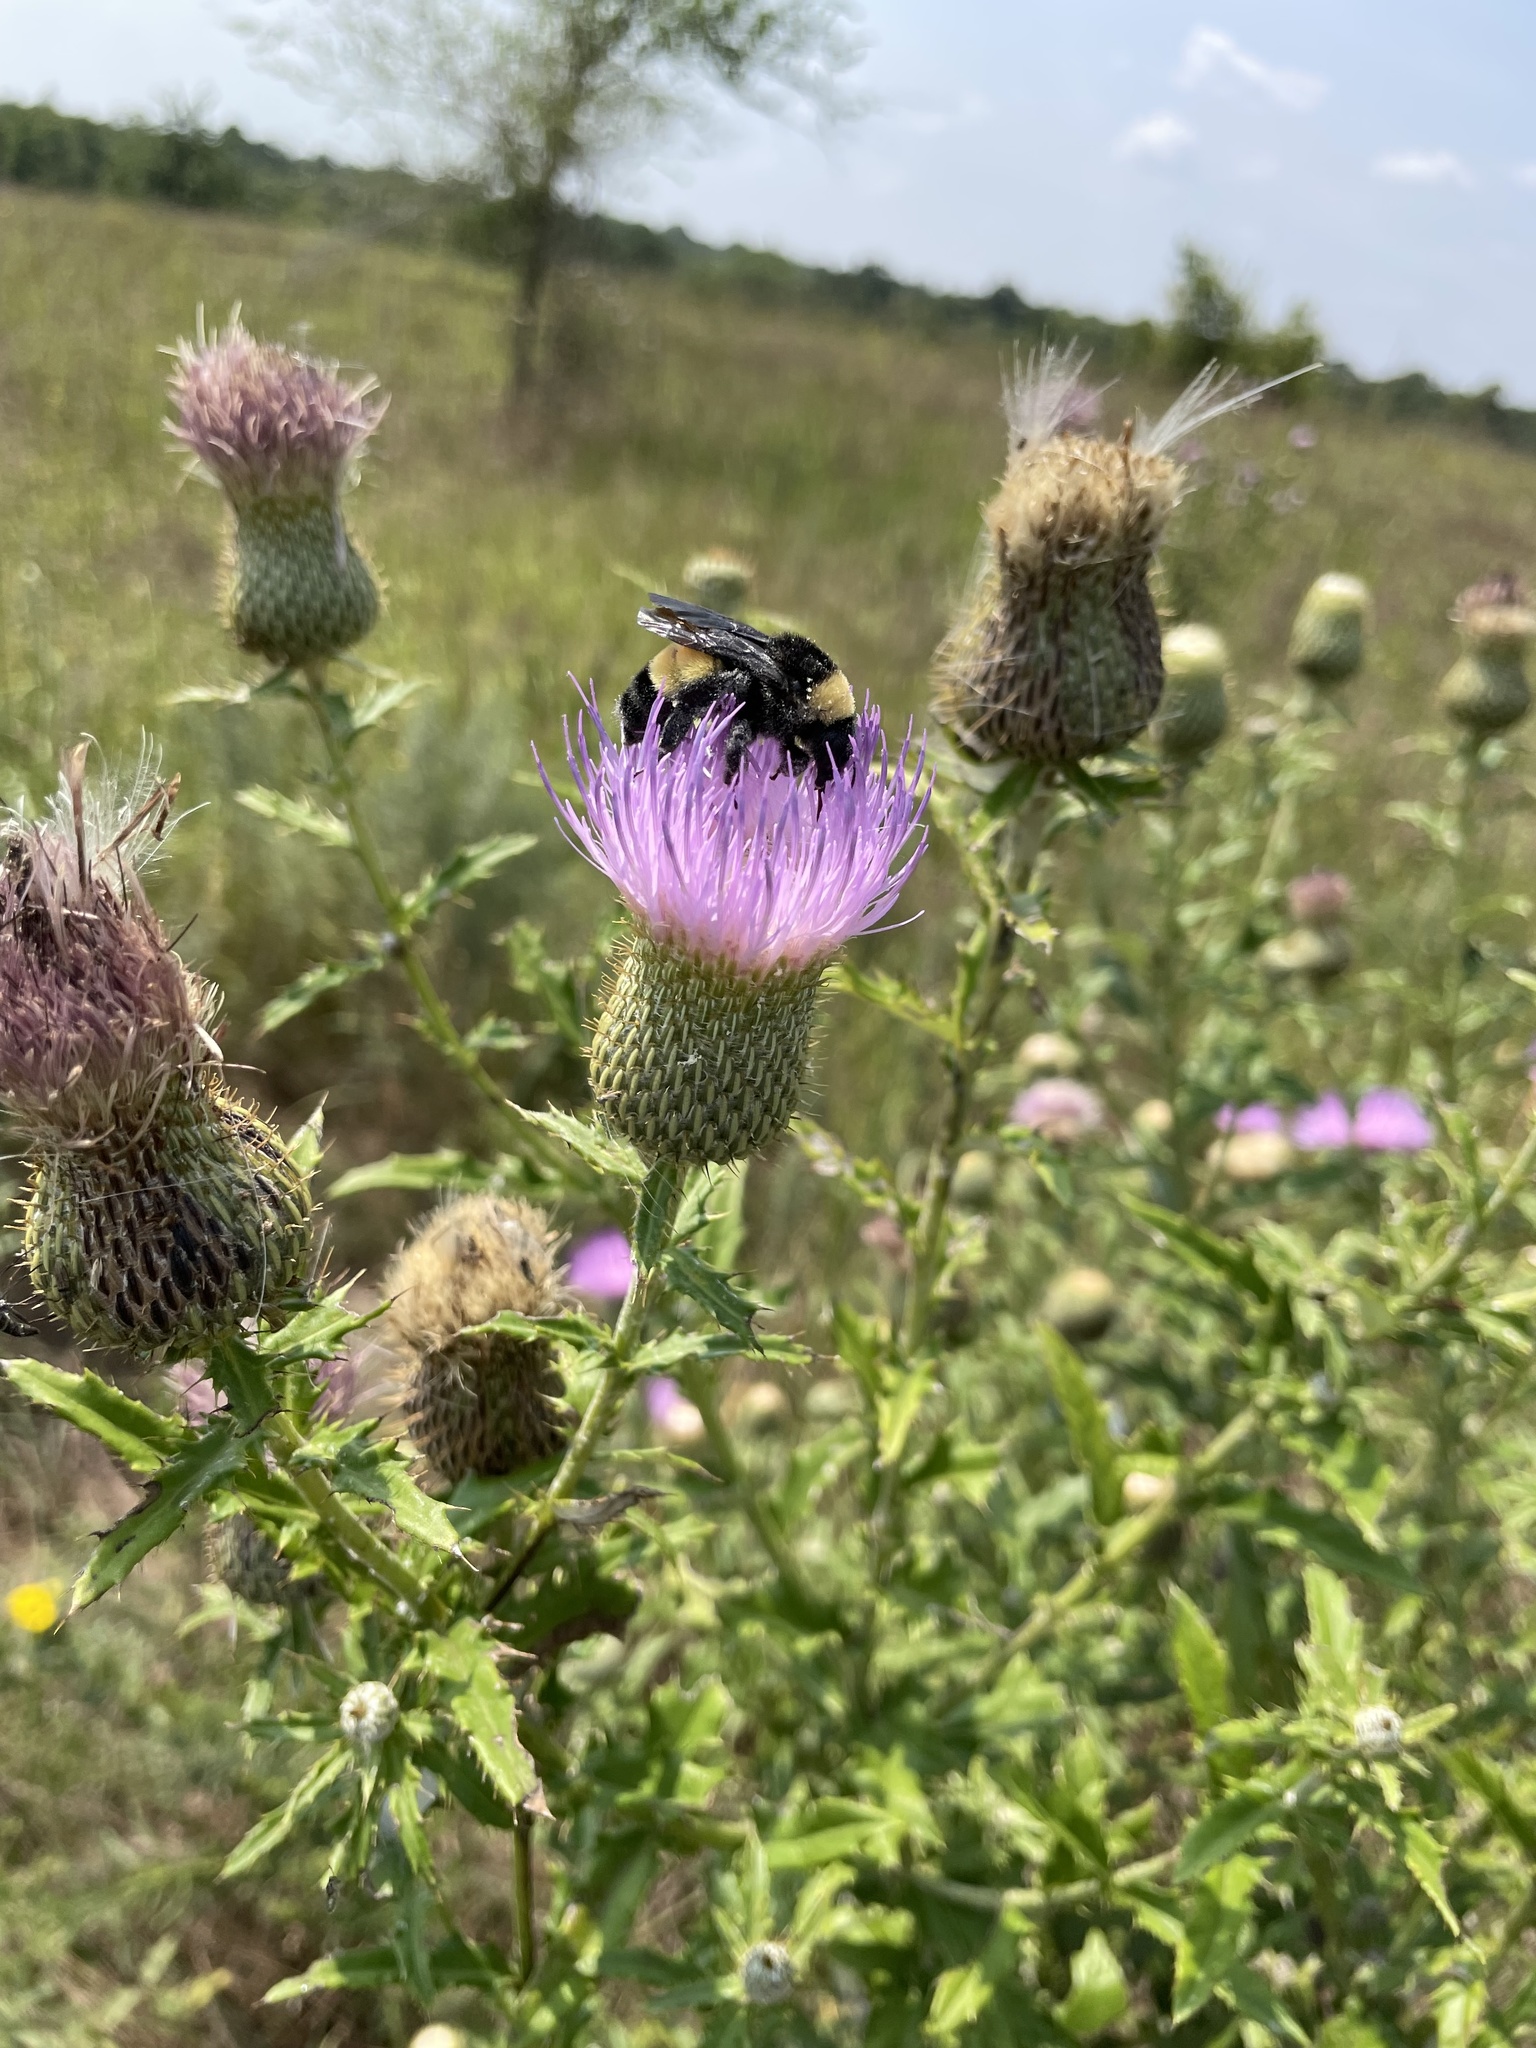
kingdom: Animalia
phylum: Arthropoda
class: Insecta
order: Hymenoptera
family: Apidae
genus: Bombus
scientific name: Bombus pensylvanicus
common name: Bumble bee
